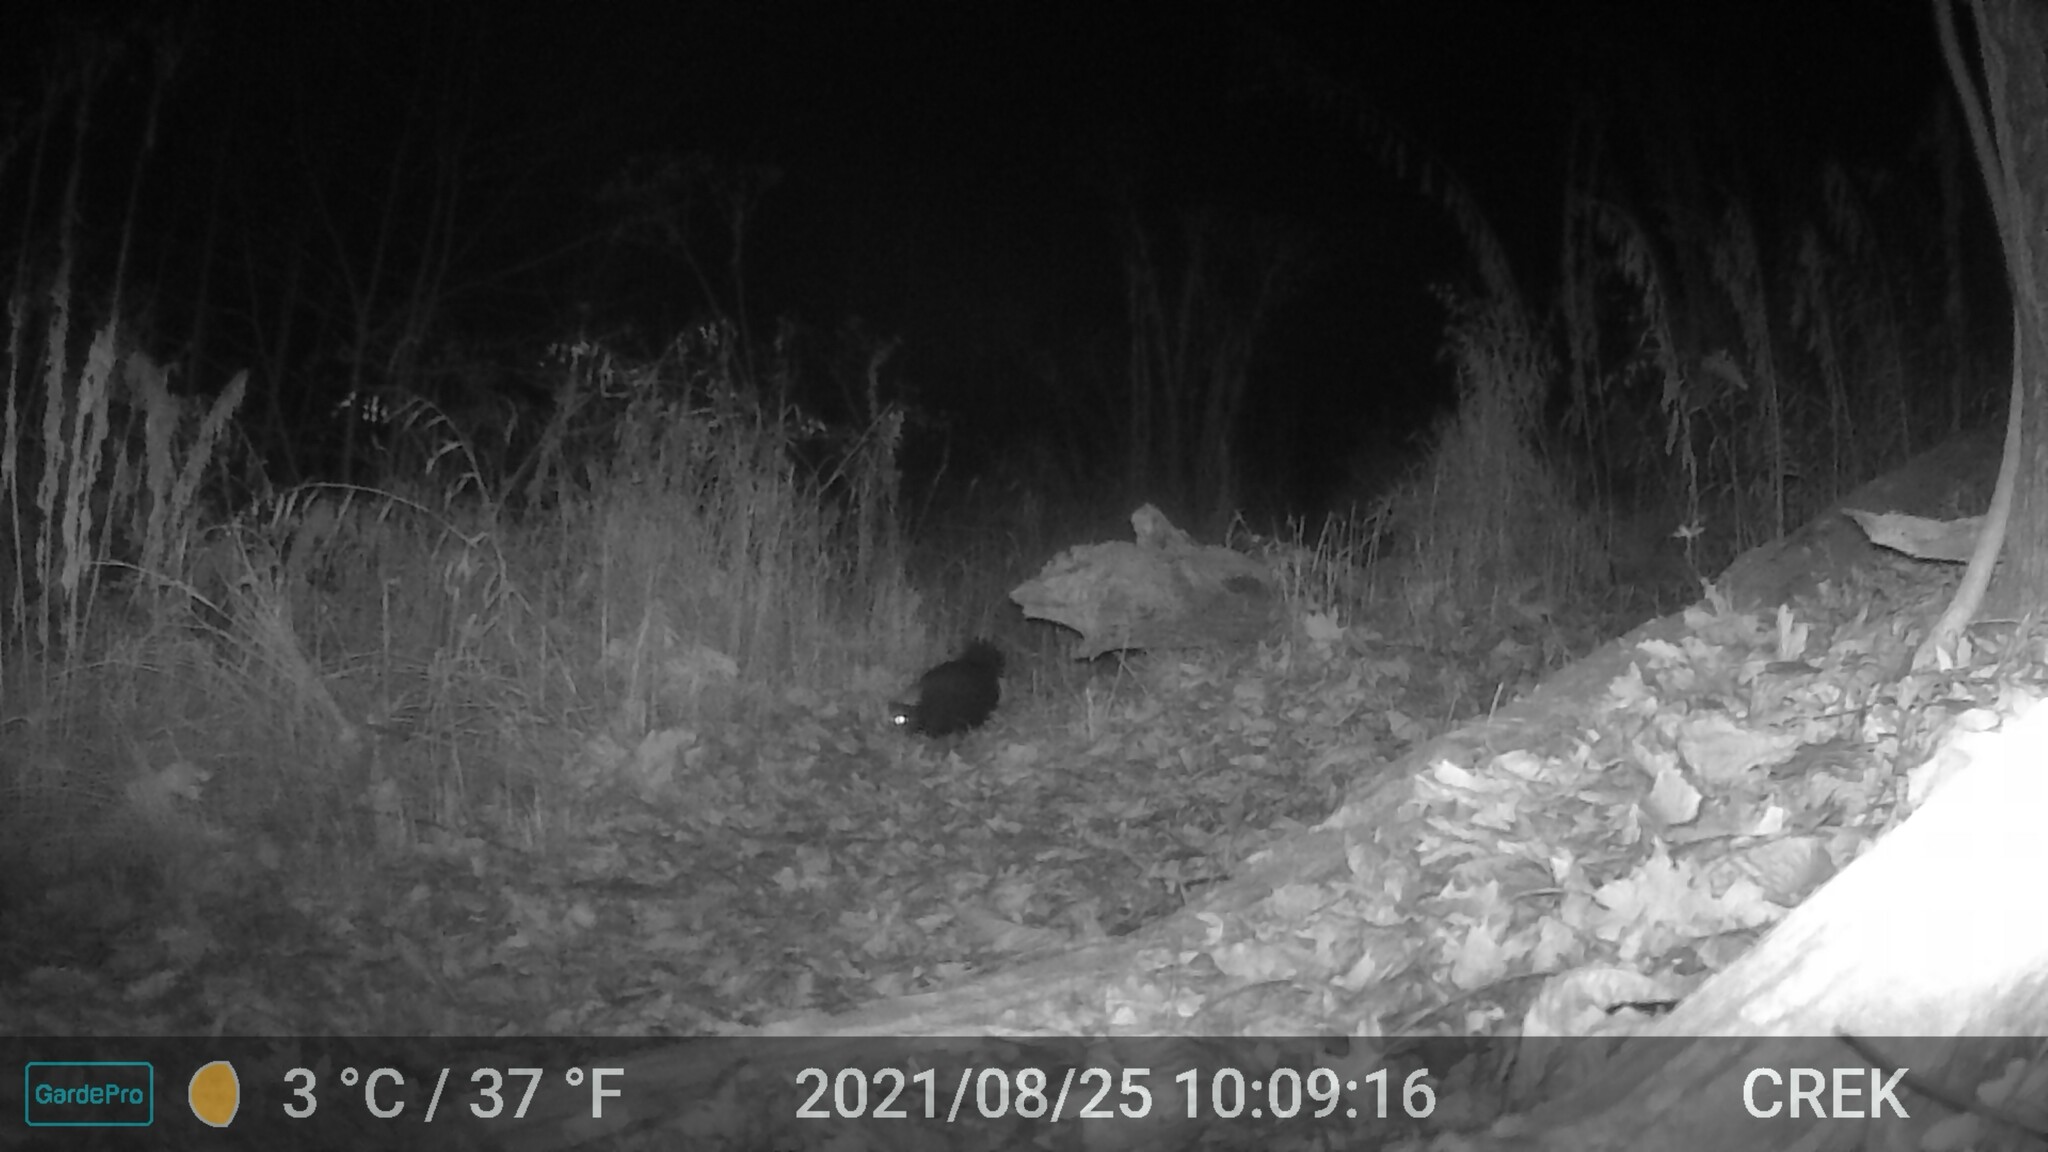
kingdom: Animalia
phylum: Chordata
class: Mammalia
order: Carnivora
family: Mephitidae
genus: Mephitis
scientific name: Mephitis mephitis
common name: Striped skunk
